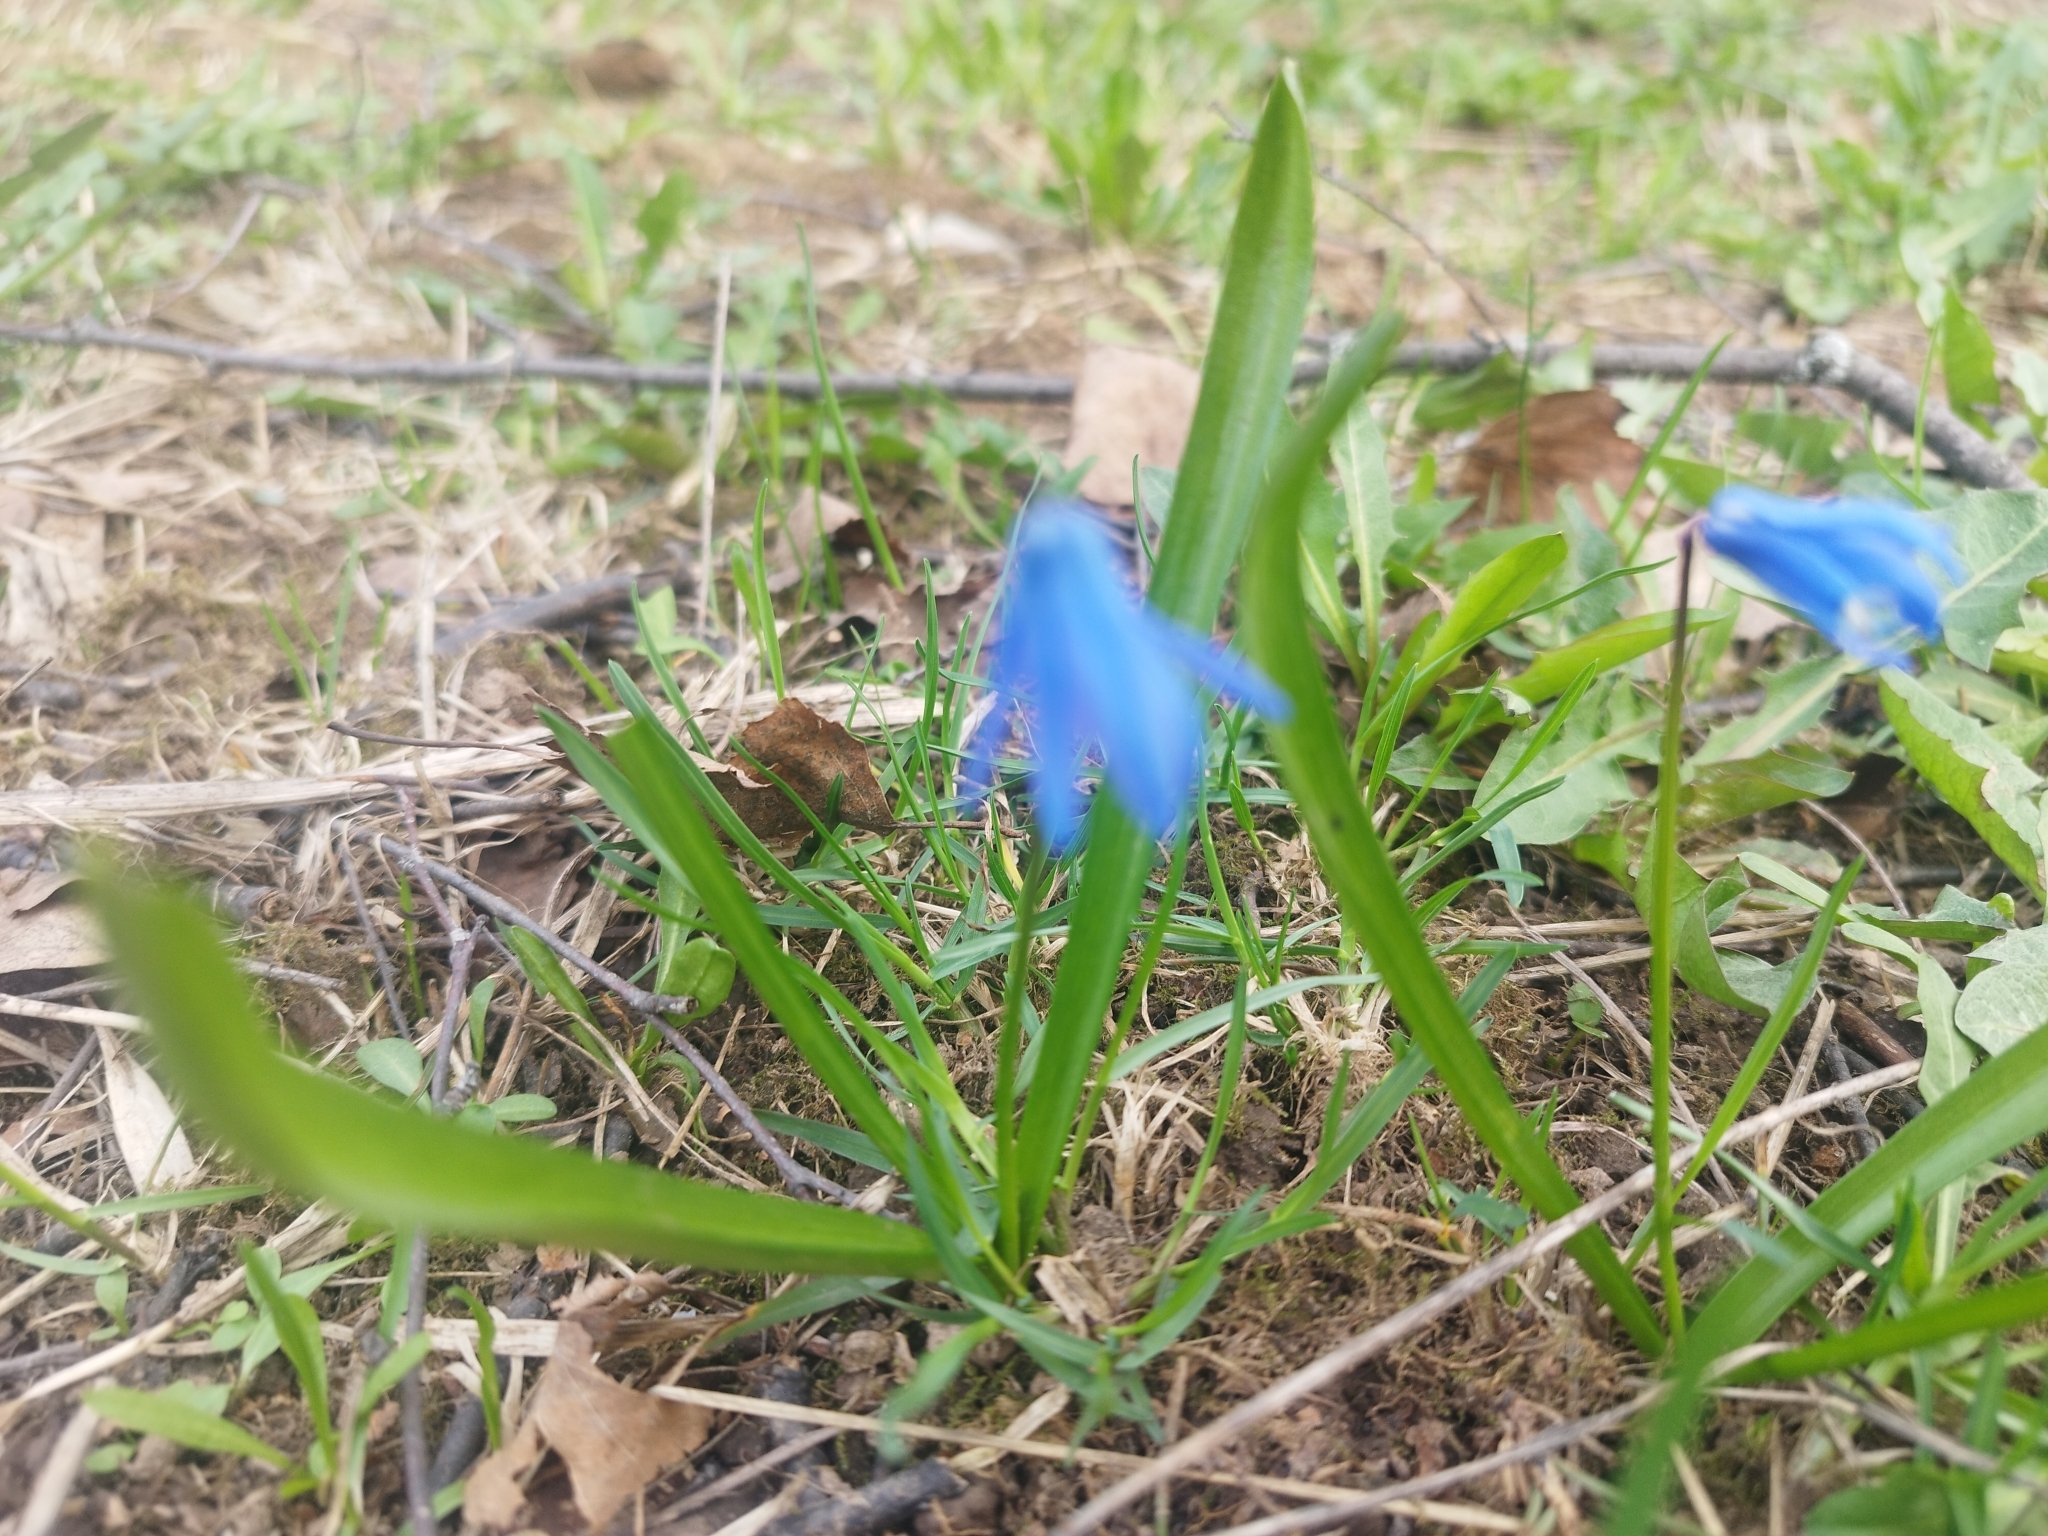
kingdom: Plantae
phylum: Tracheophyta
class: Liliopsida
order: Asparagales
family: Asparagaceae
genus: Scilla
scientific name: Scilla siberica
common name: Siberian squill
